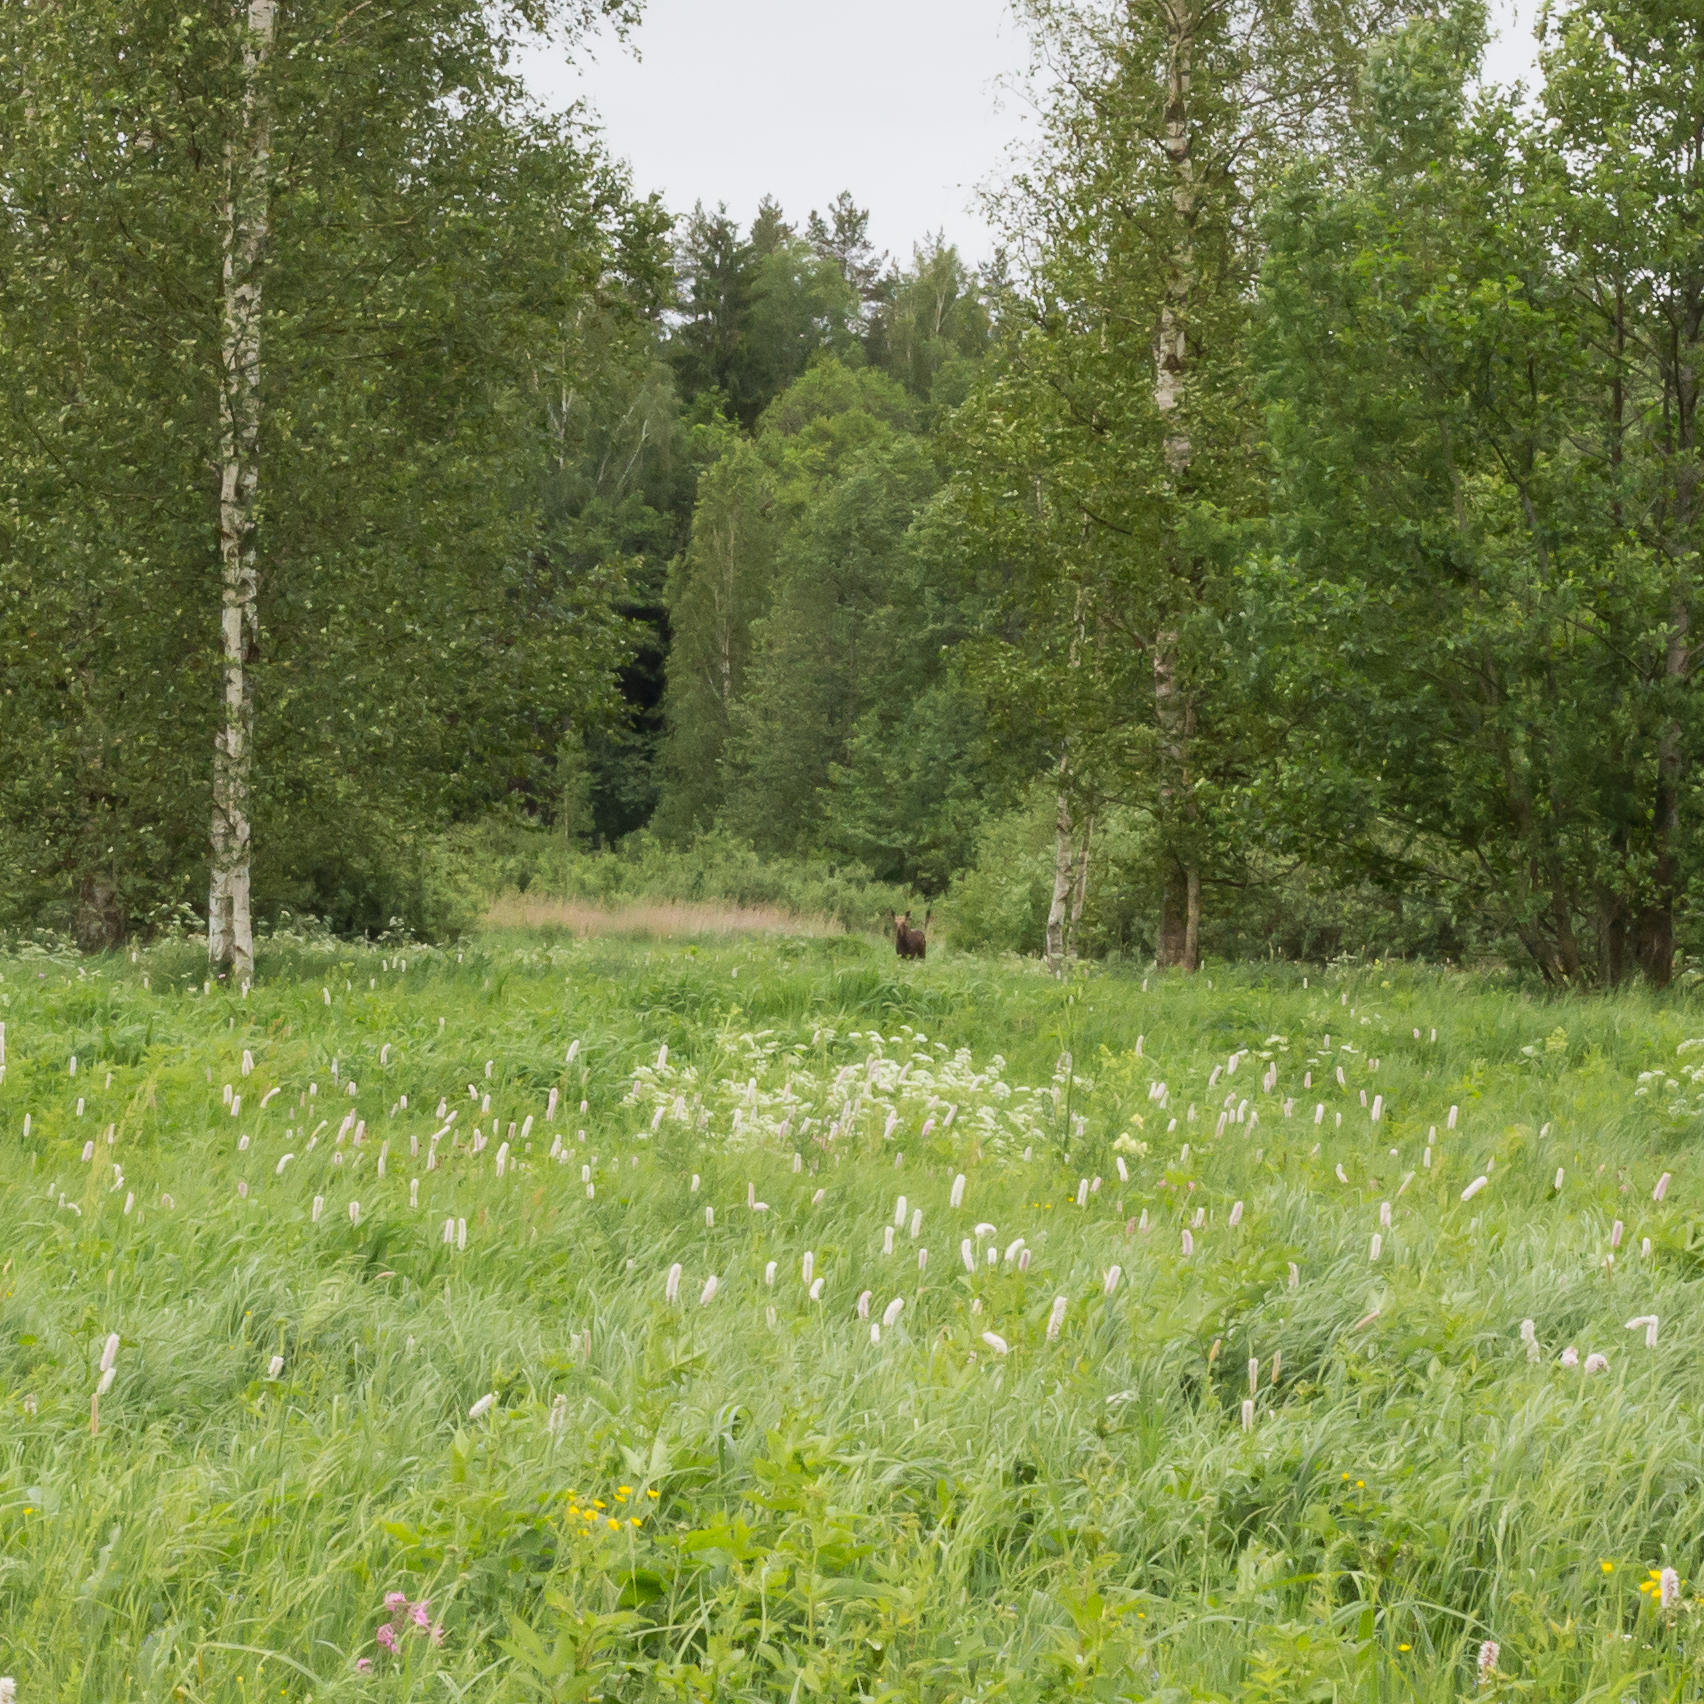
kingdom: Animalia
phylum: Chordata
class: Mammalia
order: Artiodactyla
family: Cervidae
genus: Alces
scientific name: Alces alces
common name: Moose
